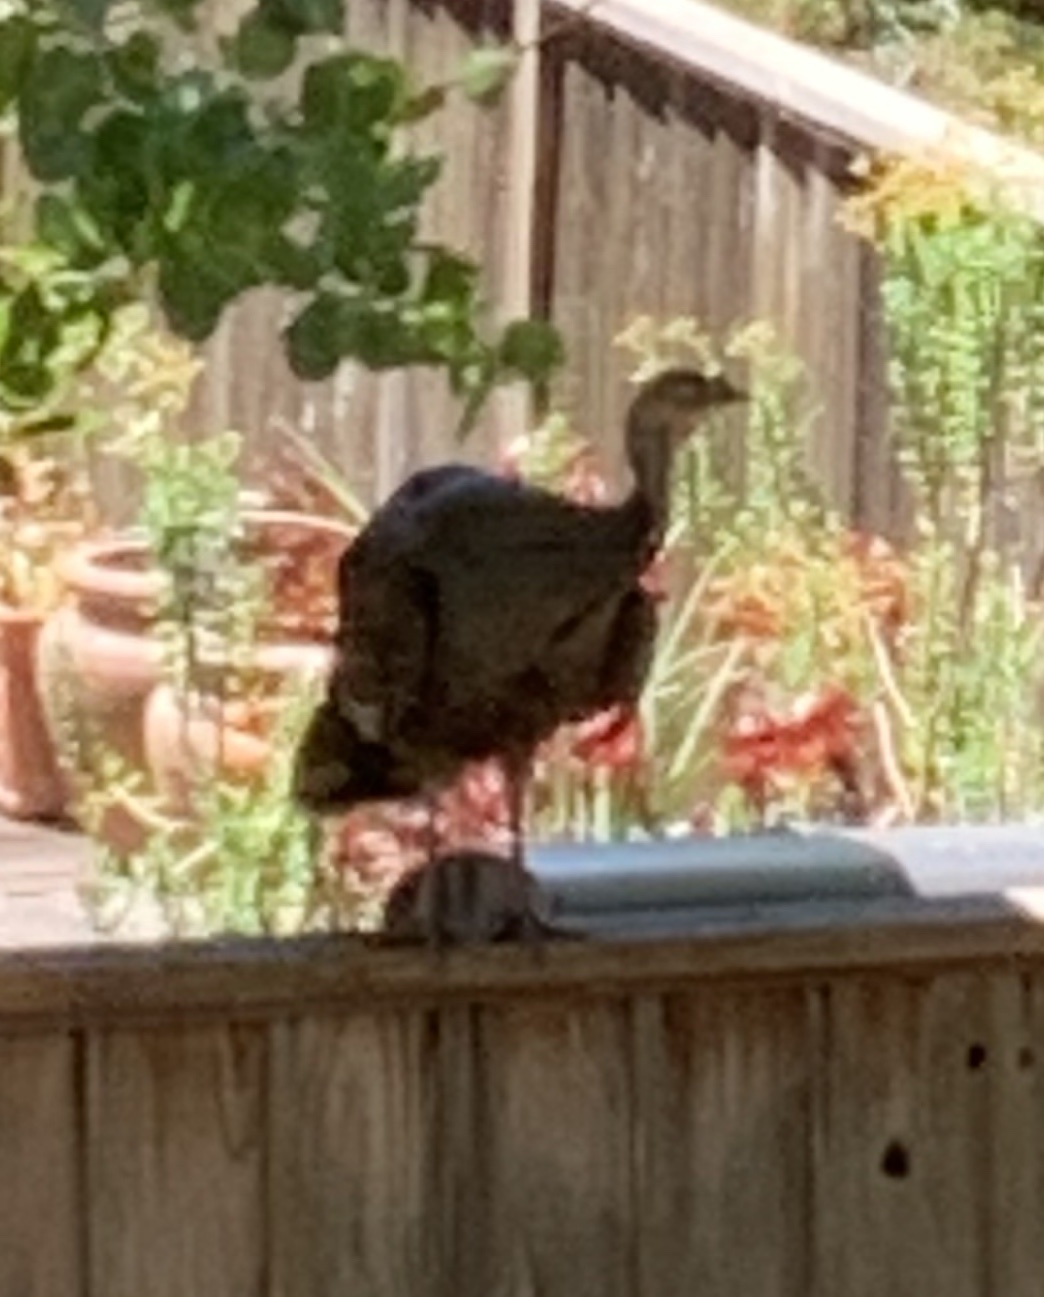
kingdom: Animalia
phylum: Chordata
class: Aves
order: Galliformes
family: Phasianidae
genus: Meleagris
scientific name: Meleagris gallopavo
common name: Wild turkey
